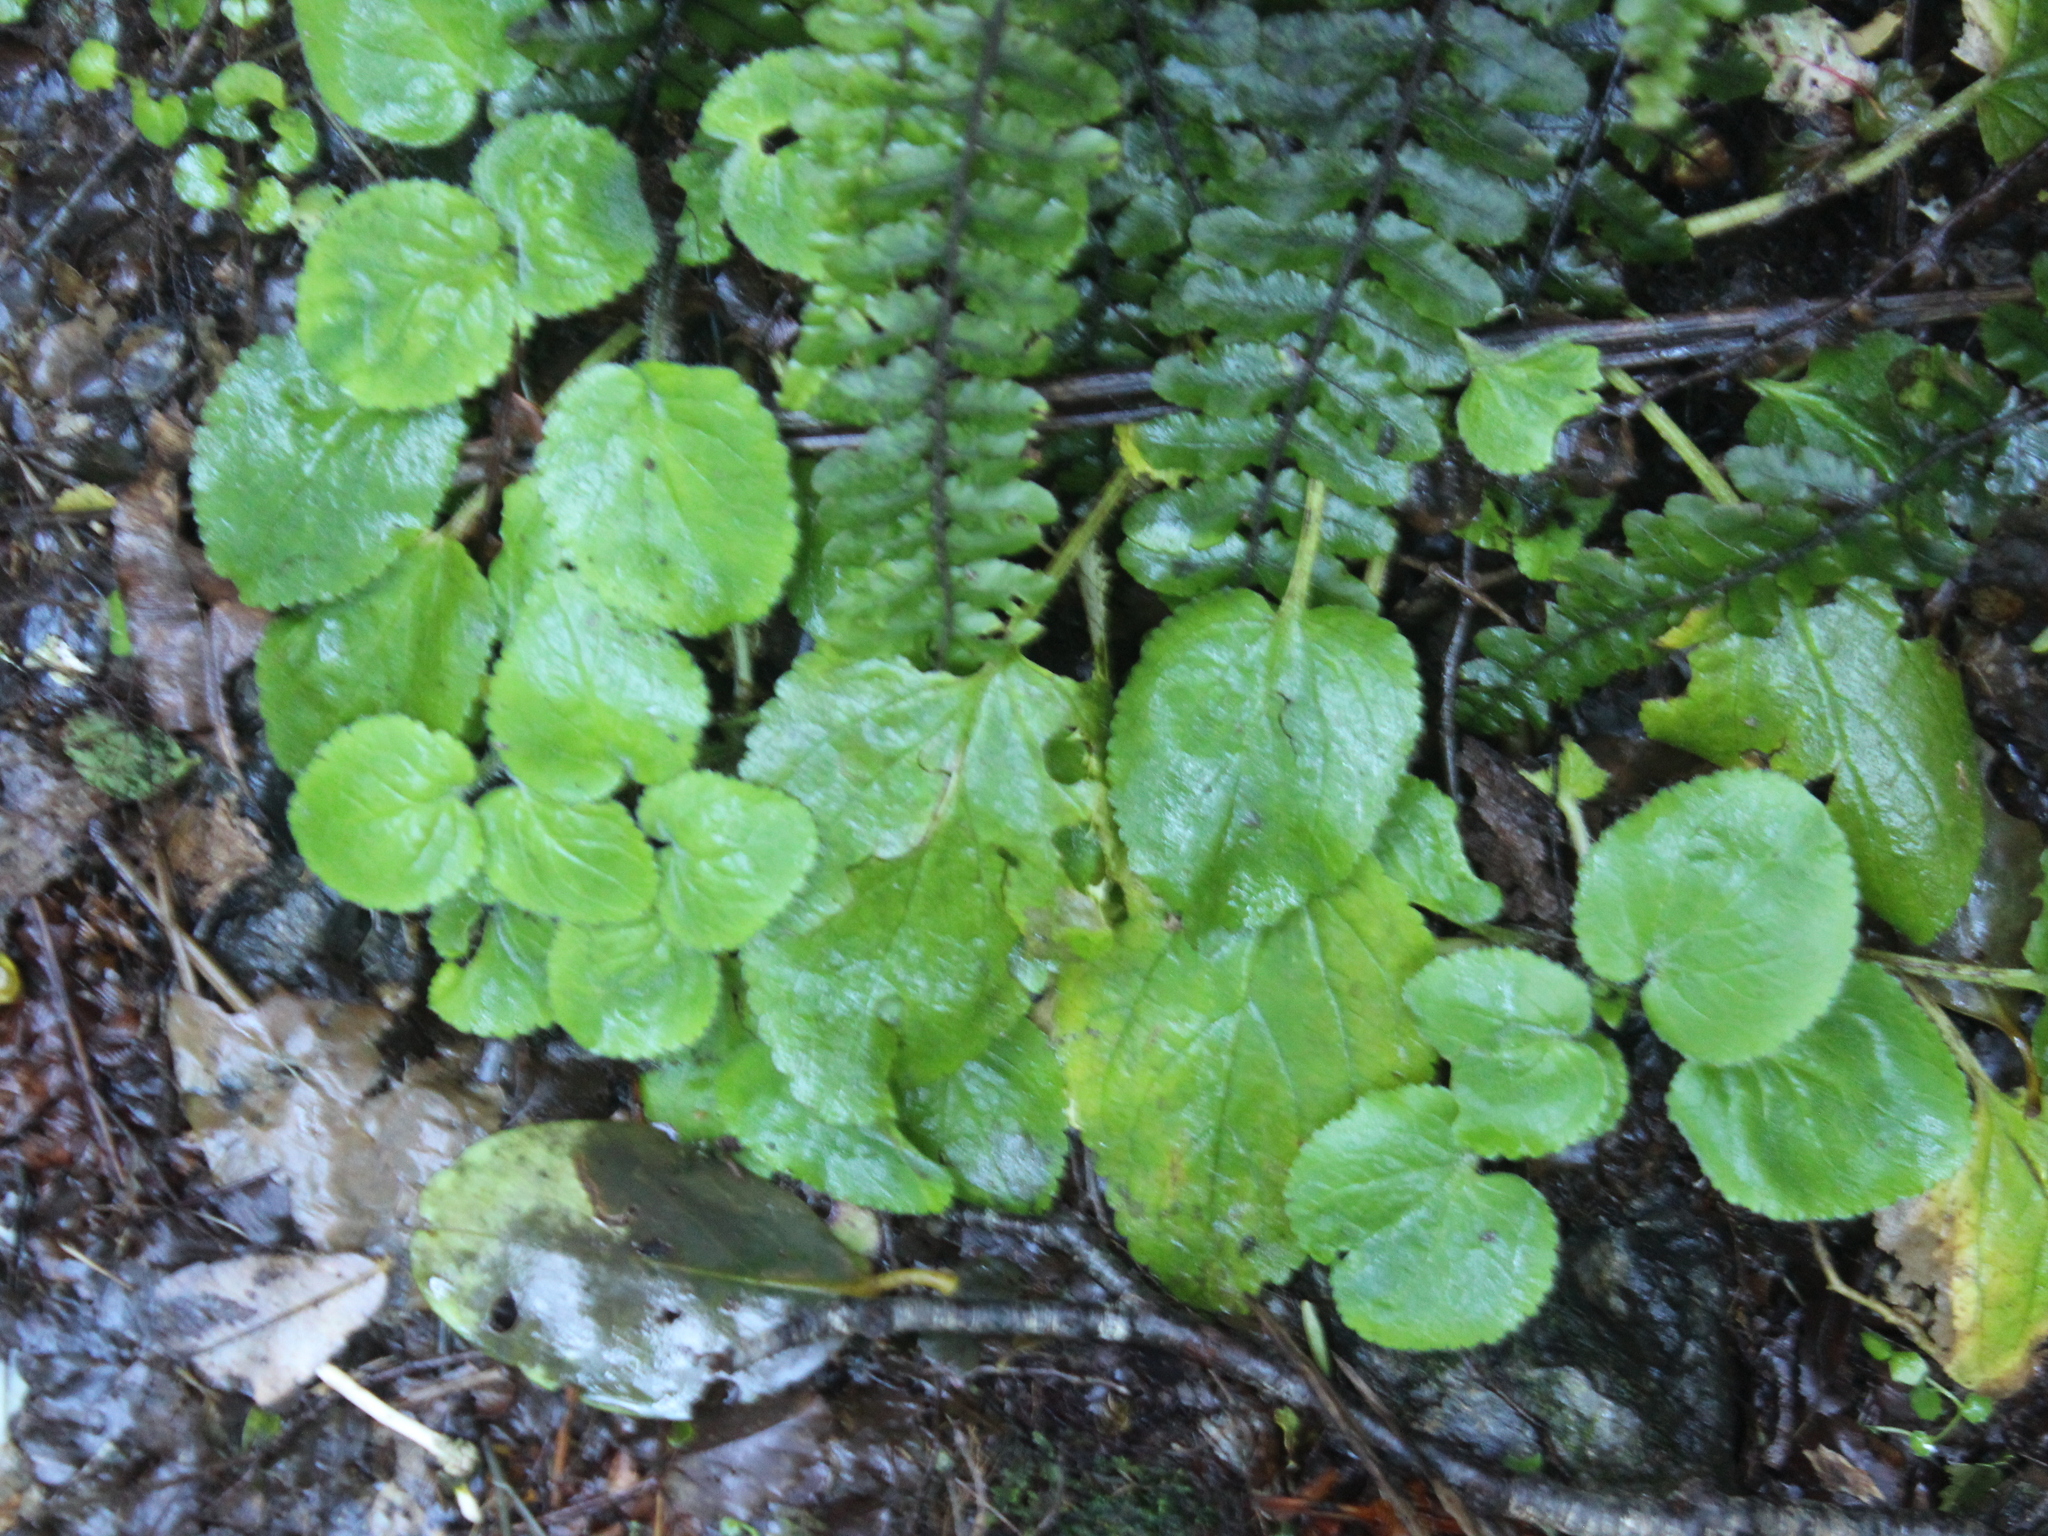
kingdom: Plantae
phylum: Tracheophyta
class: Magnoliopsida
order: Lamiales
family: Plantaginaceae
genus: Ourisia
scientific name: Ourisia macrophylla
